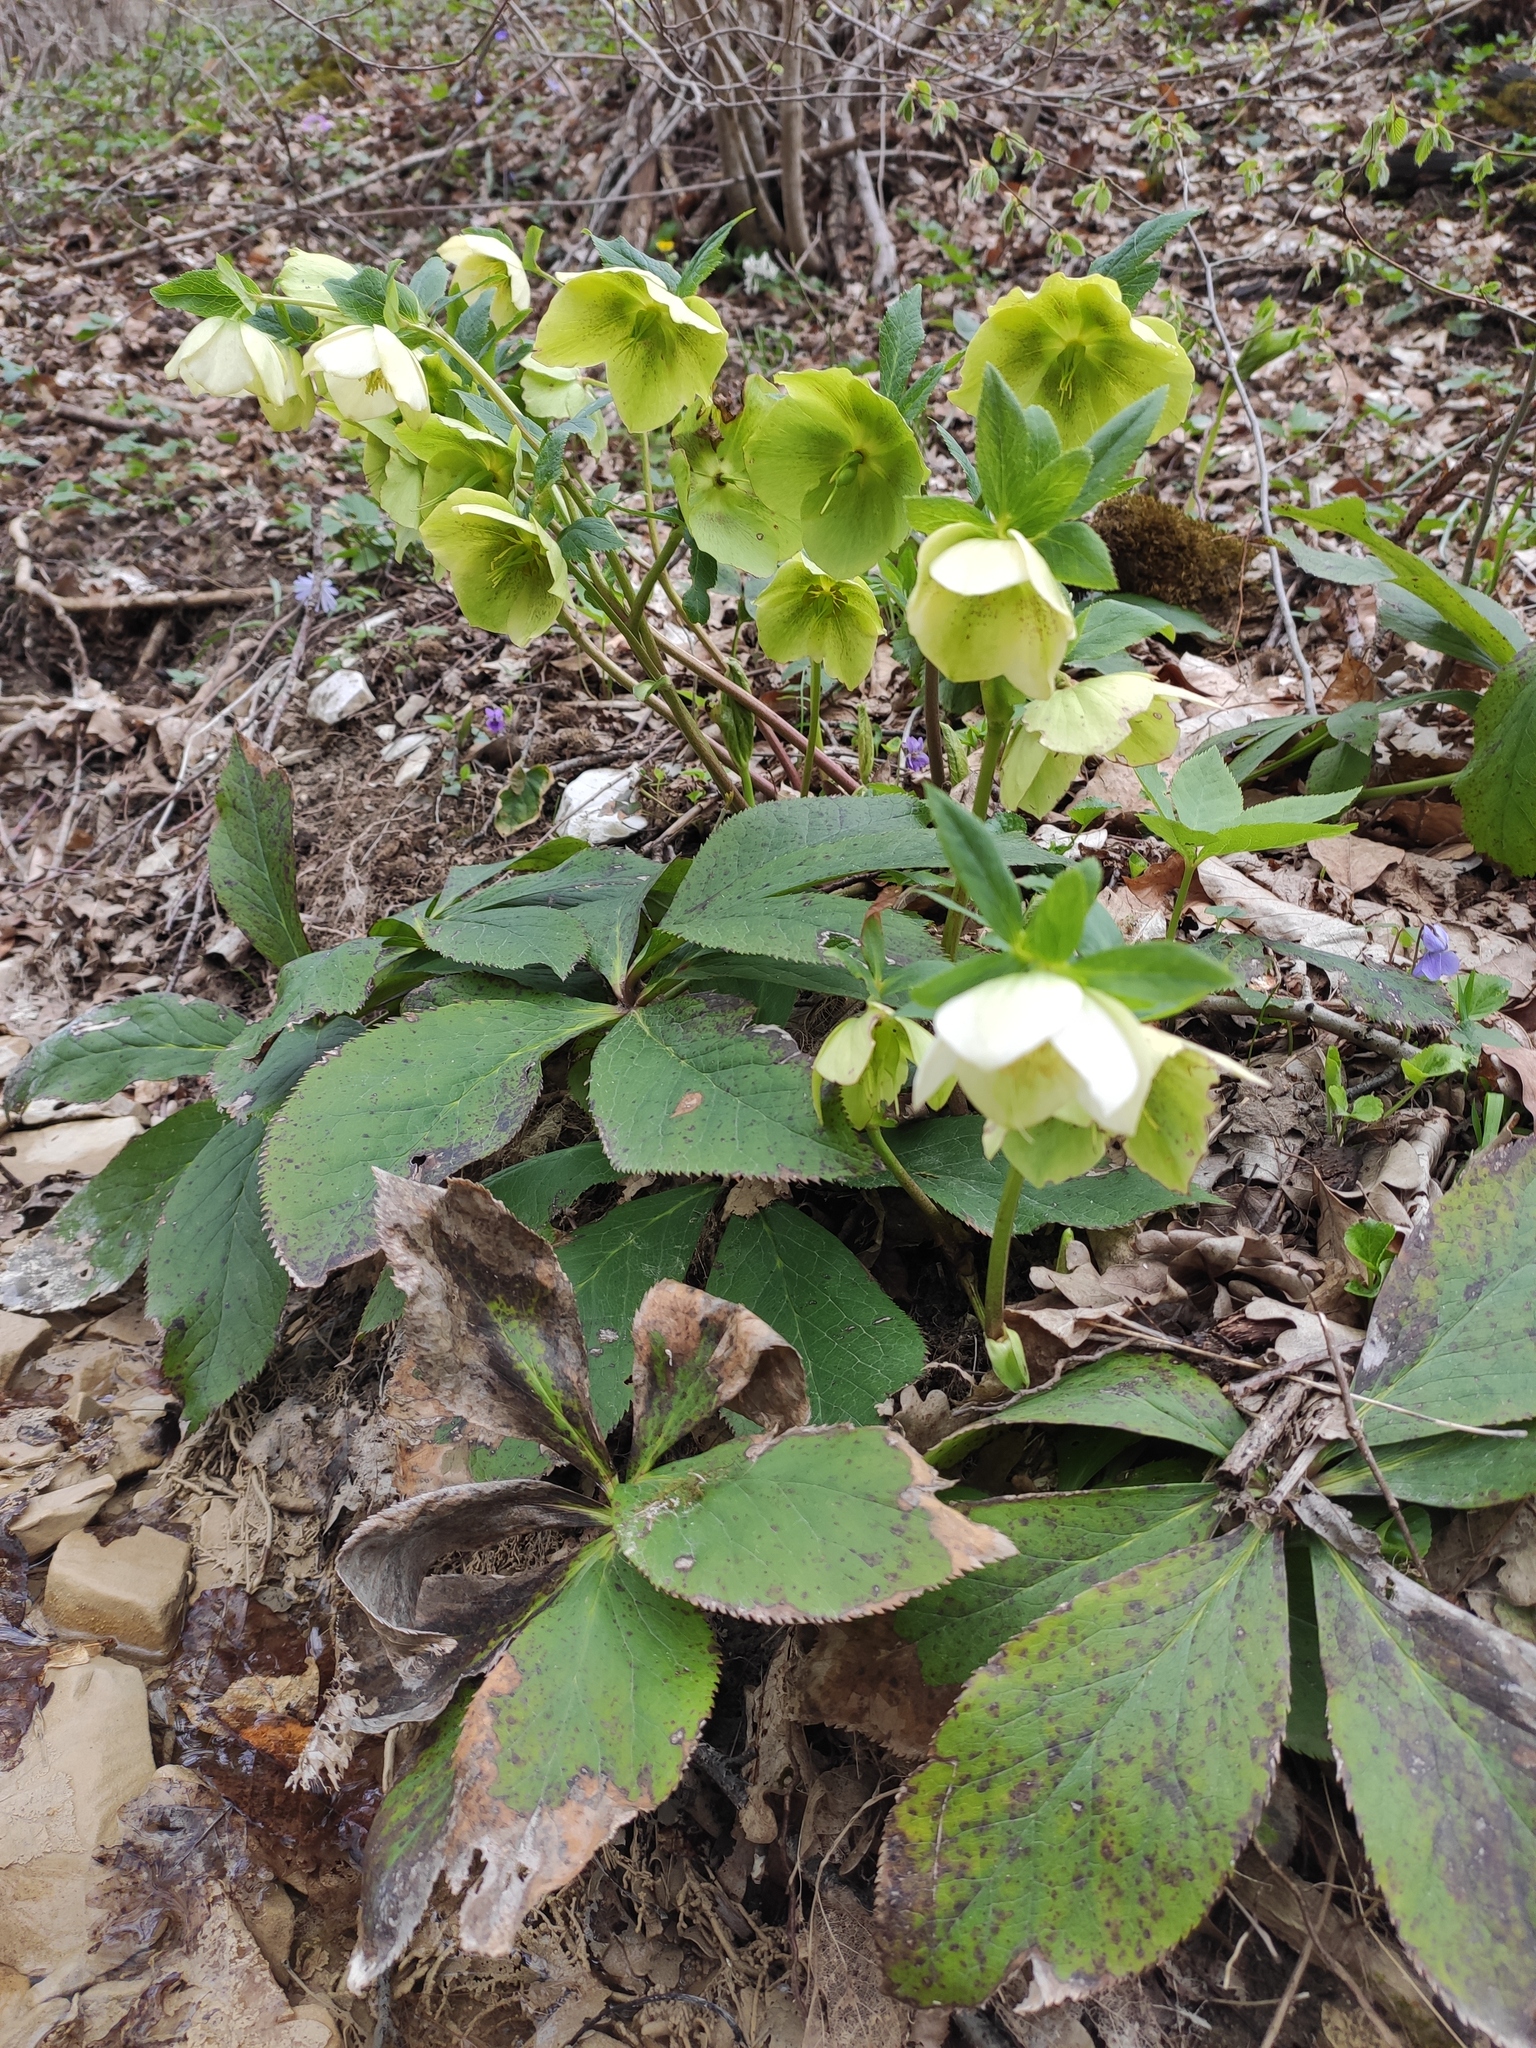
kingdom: Plantae
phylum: Tracheophyta
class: Magnoliopsida
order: Ranunculales
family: Ranunculaceae
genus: Helleborus
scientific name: Helleborus orientalis
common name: Lenten-rose
